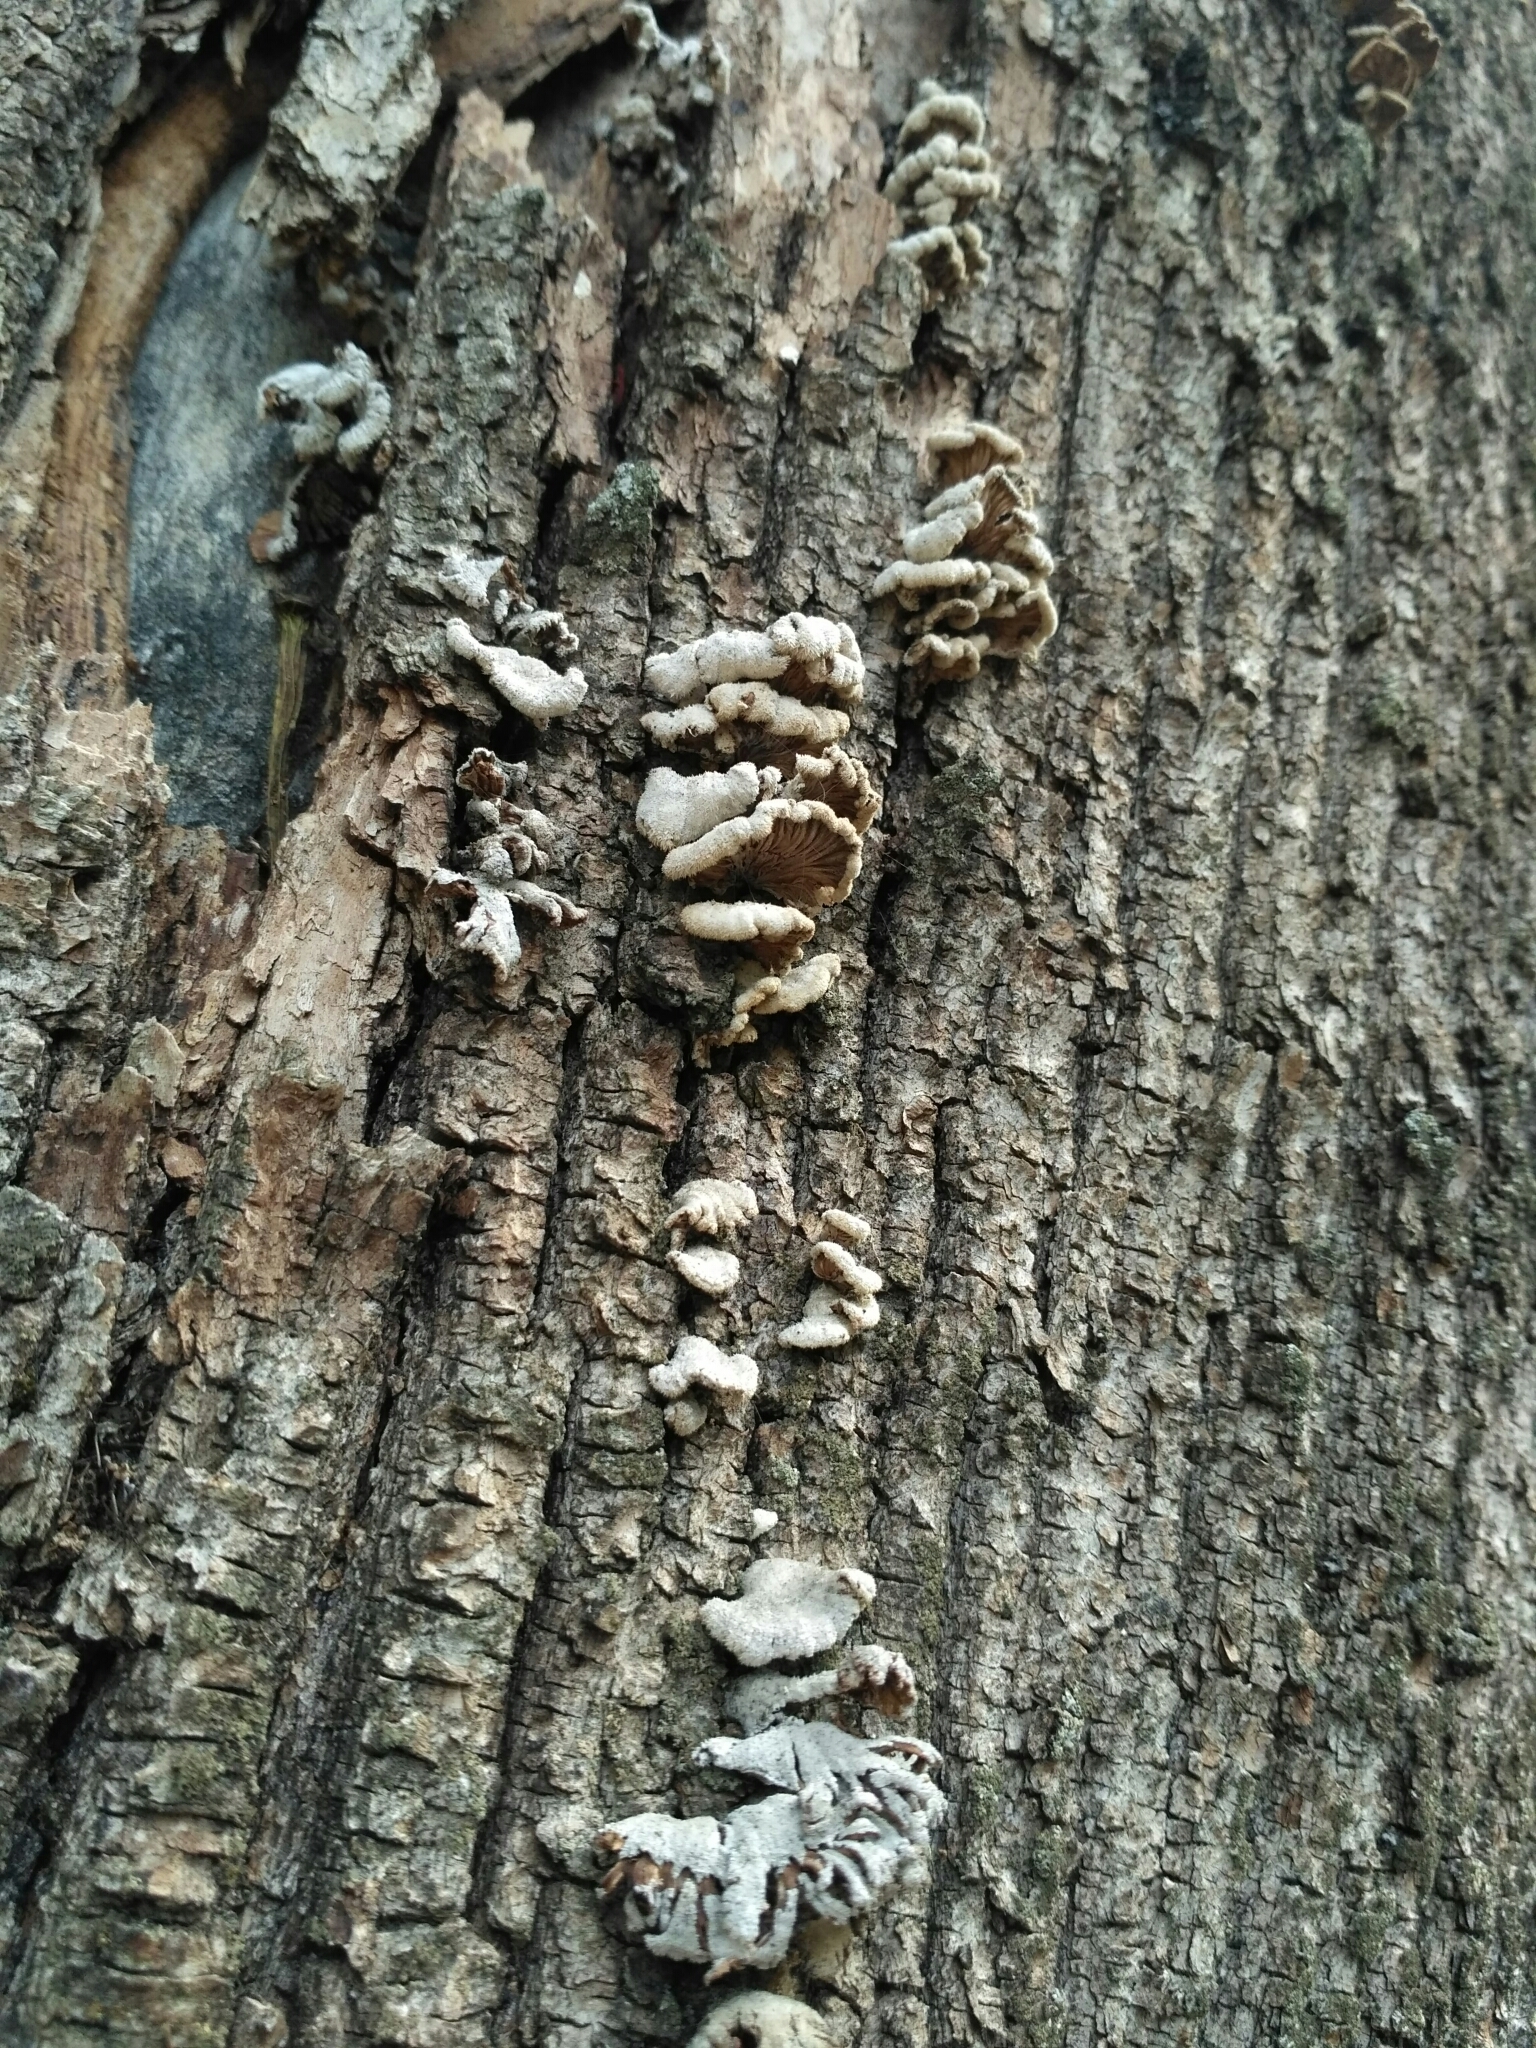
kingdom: Fungi
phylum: Basidiomycota
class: Agaricomycetes
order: Agaricales
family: Schizophyllaceae
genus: Schizophyllum
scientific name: Schizophyllum commune
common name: Common porecrust
